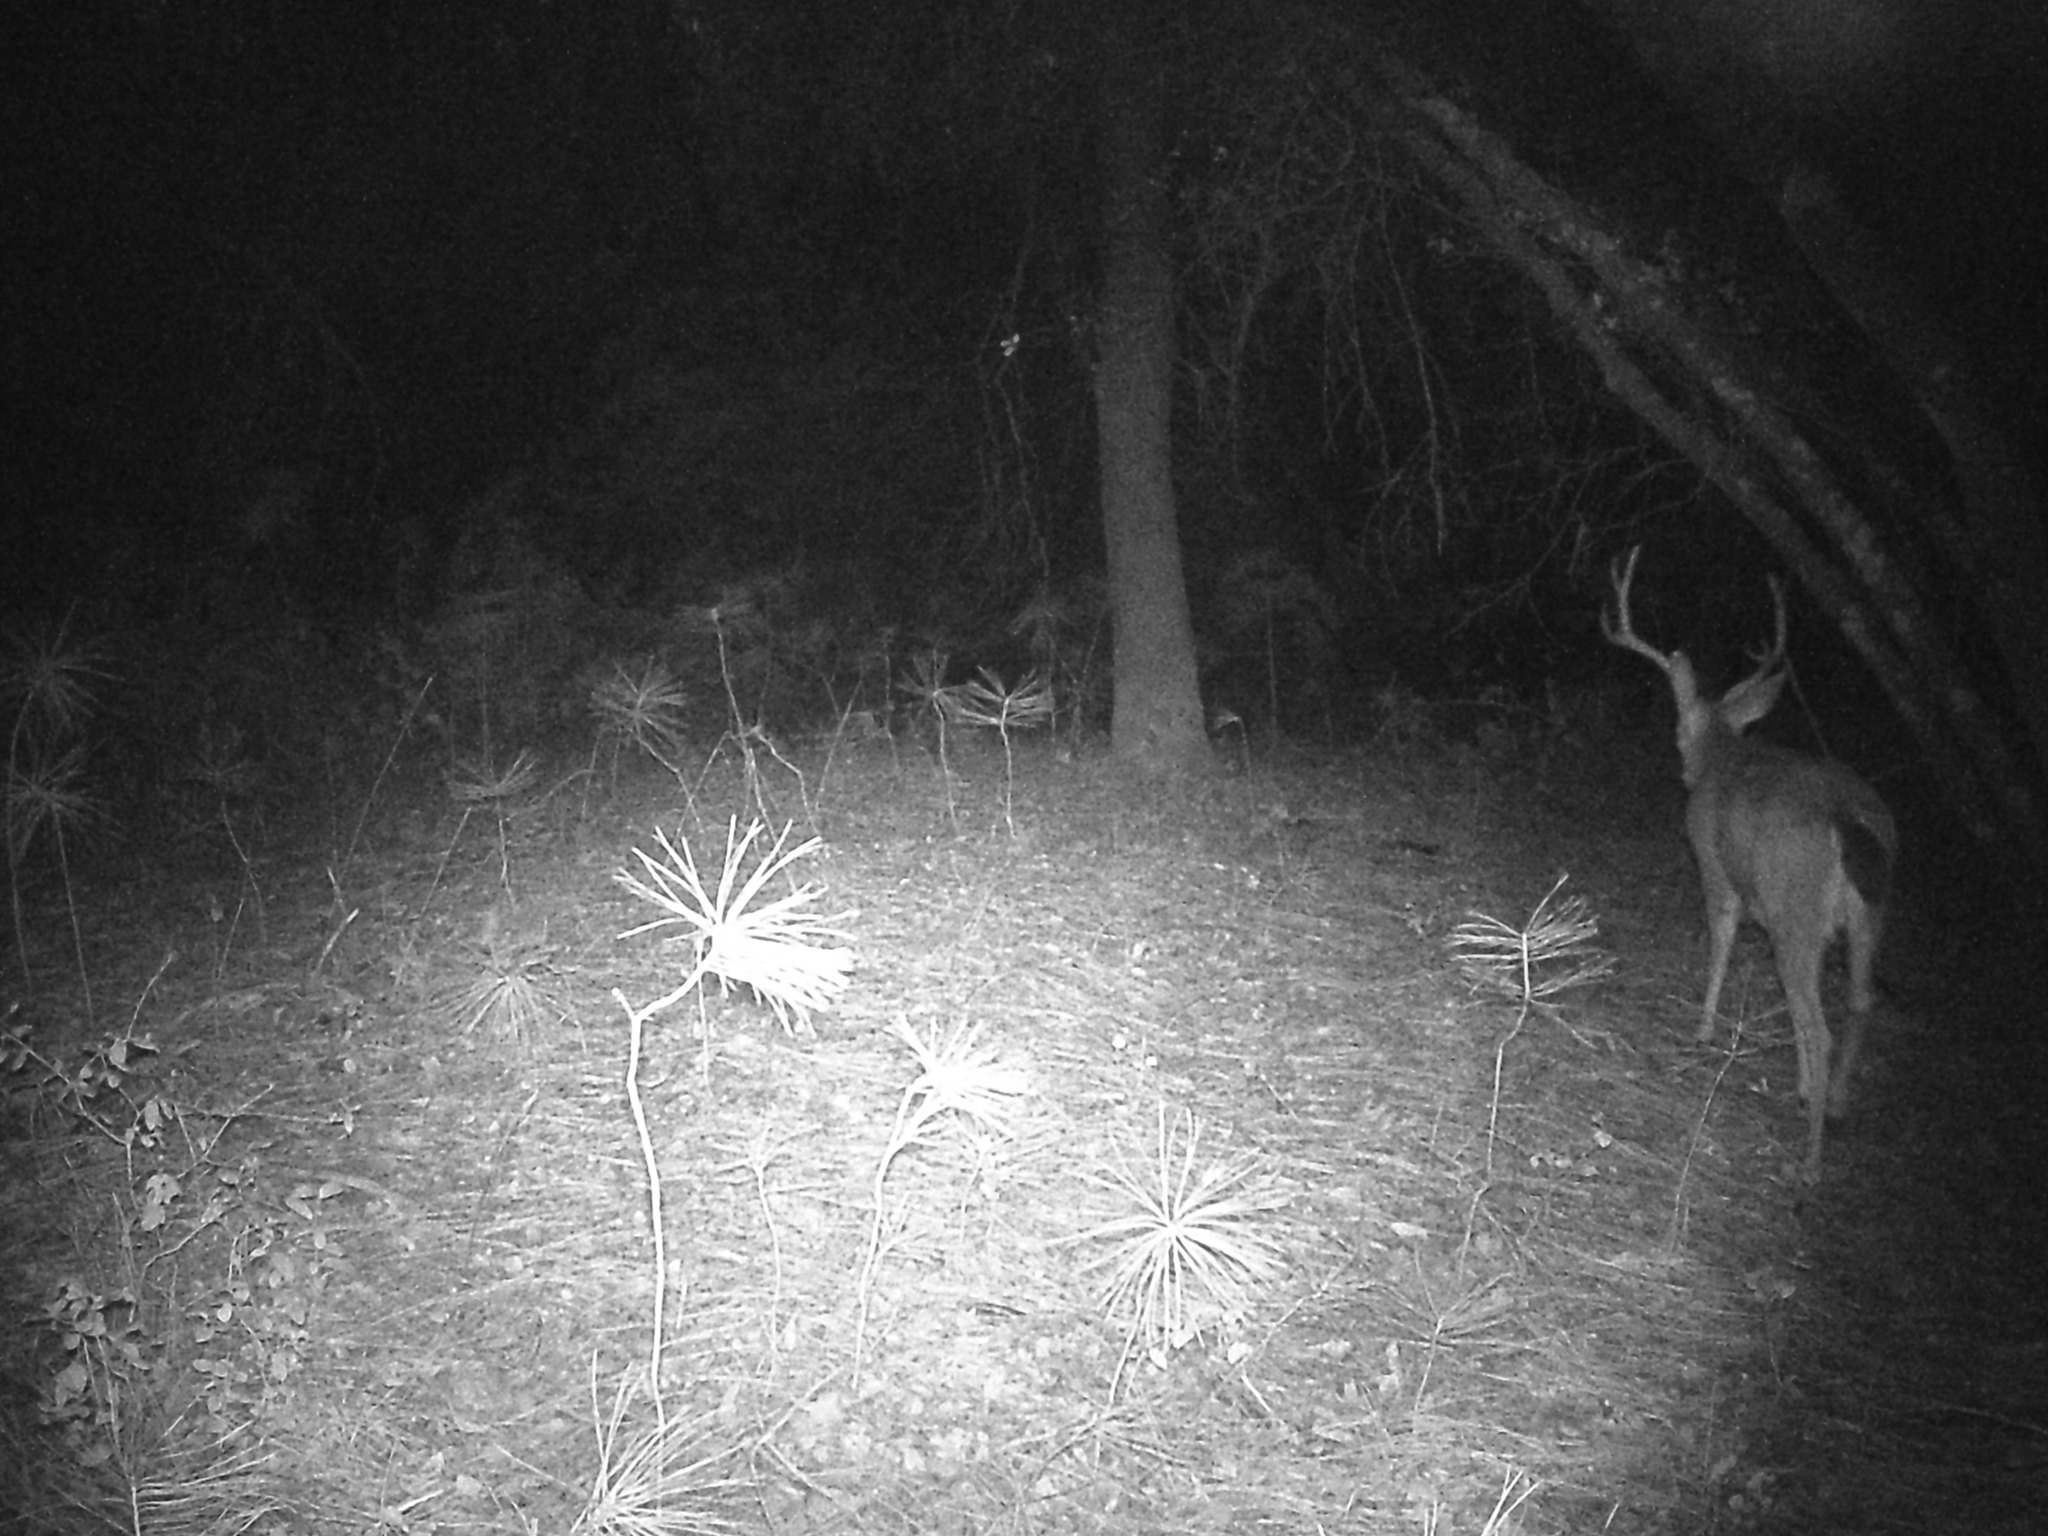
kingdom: Animalia
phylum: Chordata
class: Mammalia
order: Artiodactyla
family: Cervidae
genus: Odocoileus
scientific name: Odocoileus hemionus
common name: Mule deer
